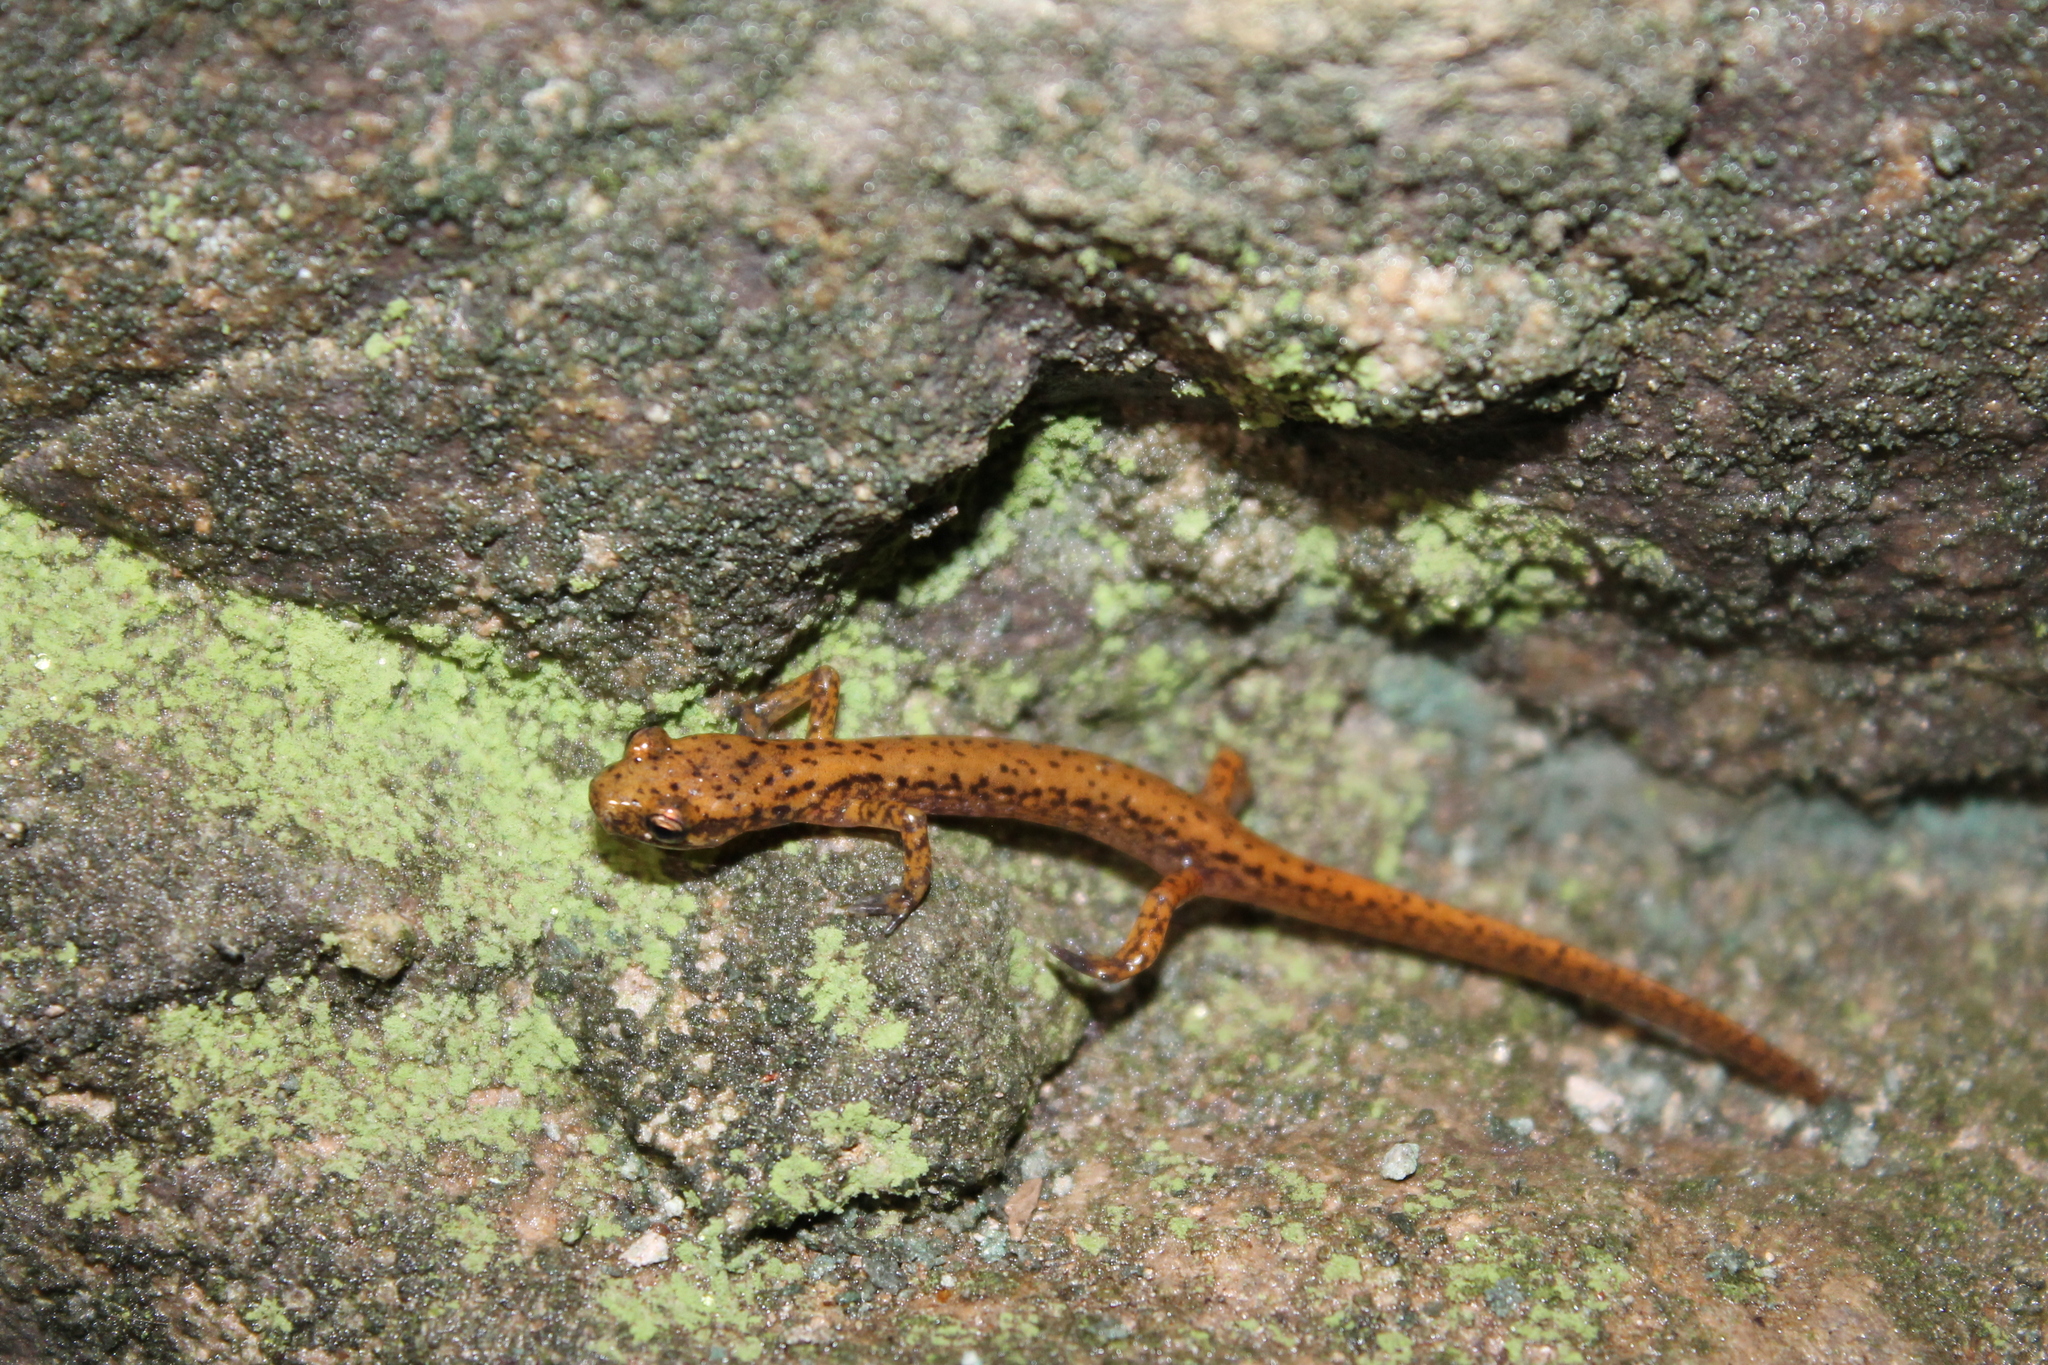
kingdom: Animalia
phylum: Chordata
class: Amphibia
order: Caudata
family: Plethodontidae
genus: Eurycea
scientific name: Eurycea lucifuga
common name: Cave salamander
